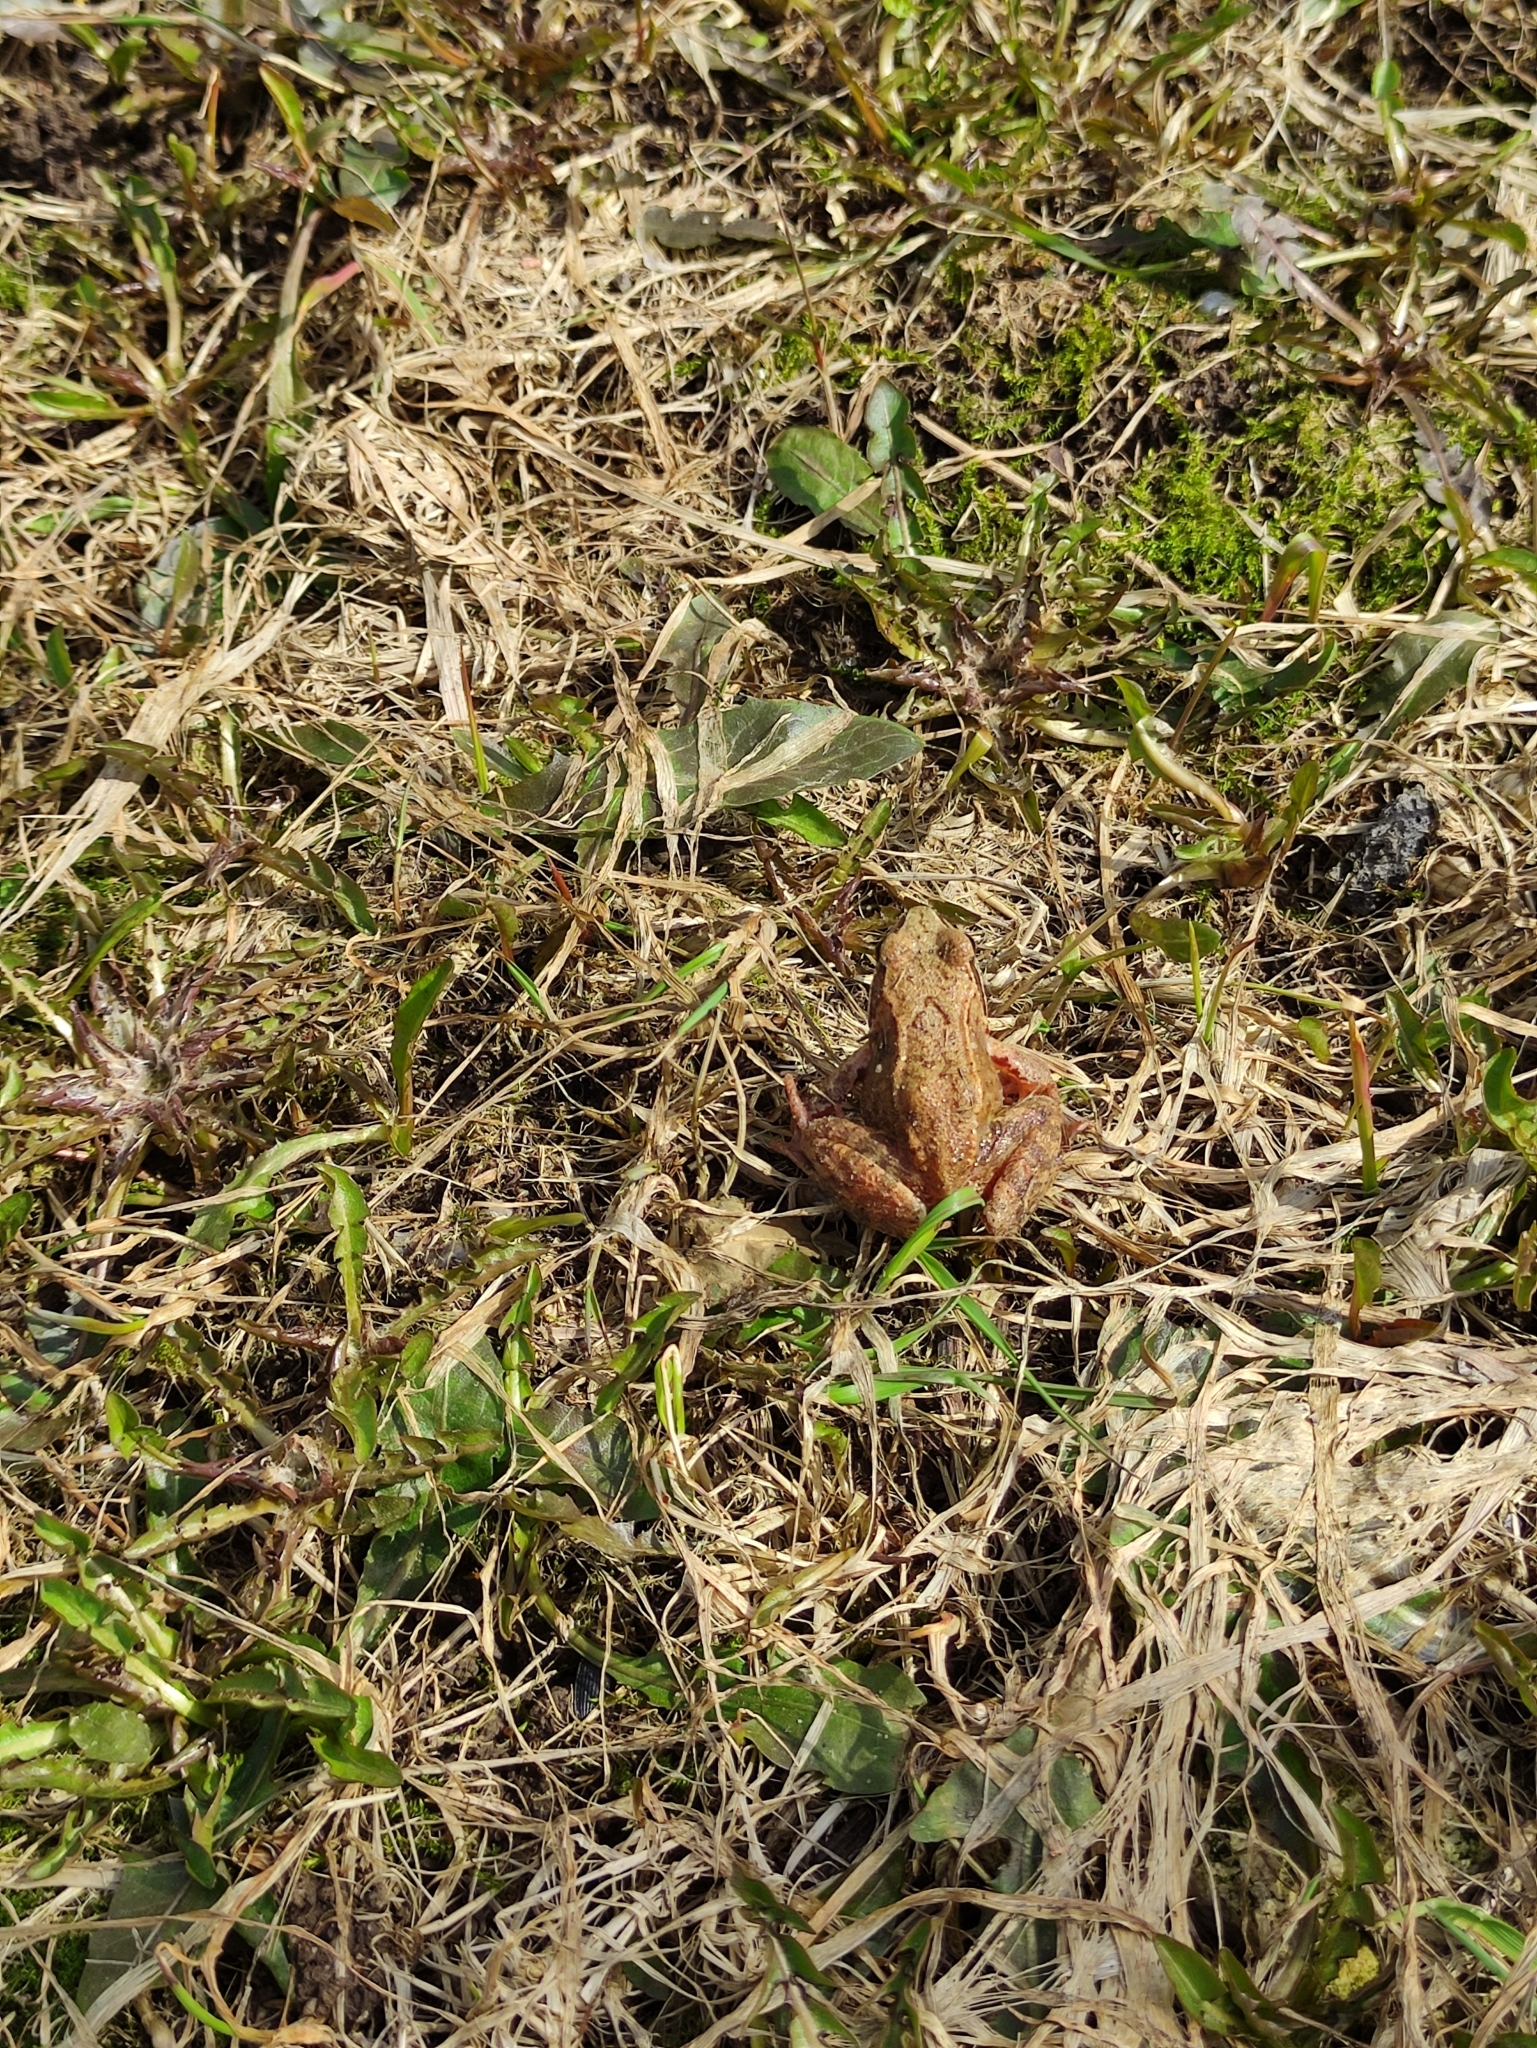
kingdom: Animalia
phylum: Chordata
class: Amphibia
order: Anura
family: Ranidae
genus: Rana
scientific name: Rana temporaria
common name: Common frog
